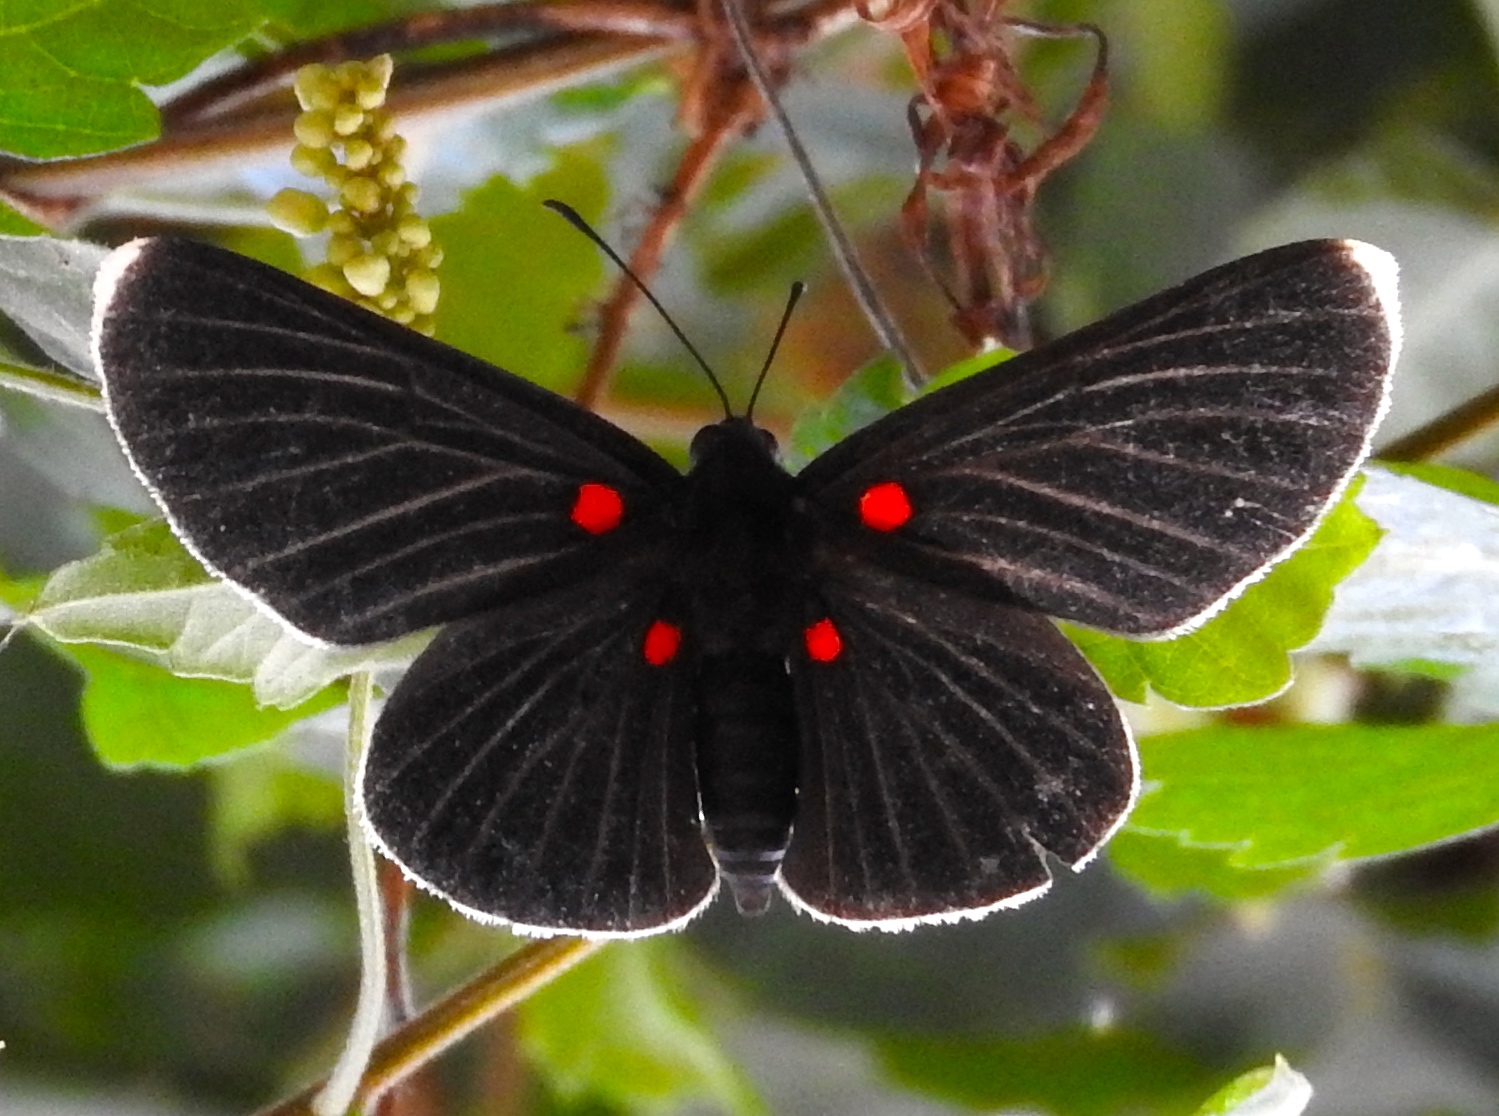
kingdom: Animalia
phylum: Arthropoda
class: Insecta
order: Lepidoptera
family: Lycaenidae
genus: Melanis
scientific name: Melanis
